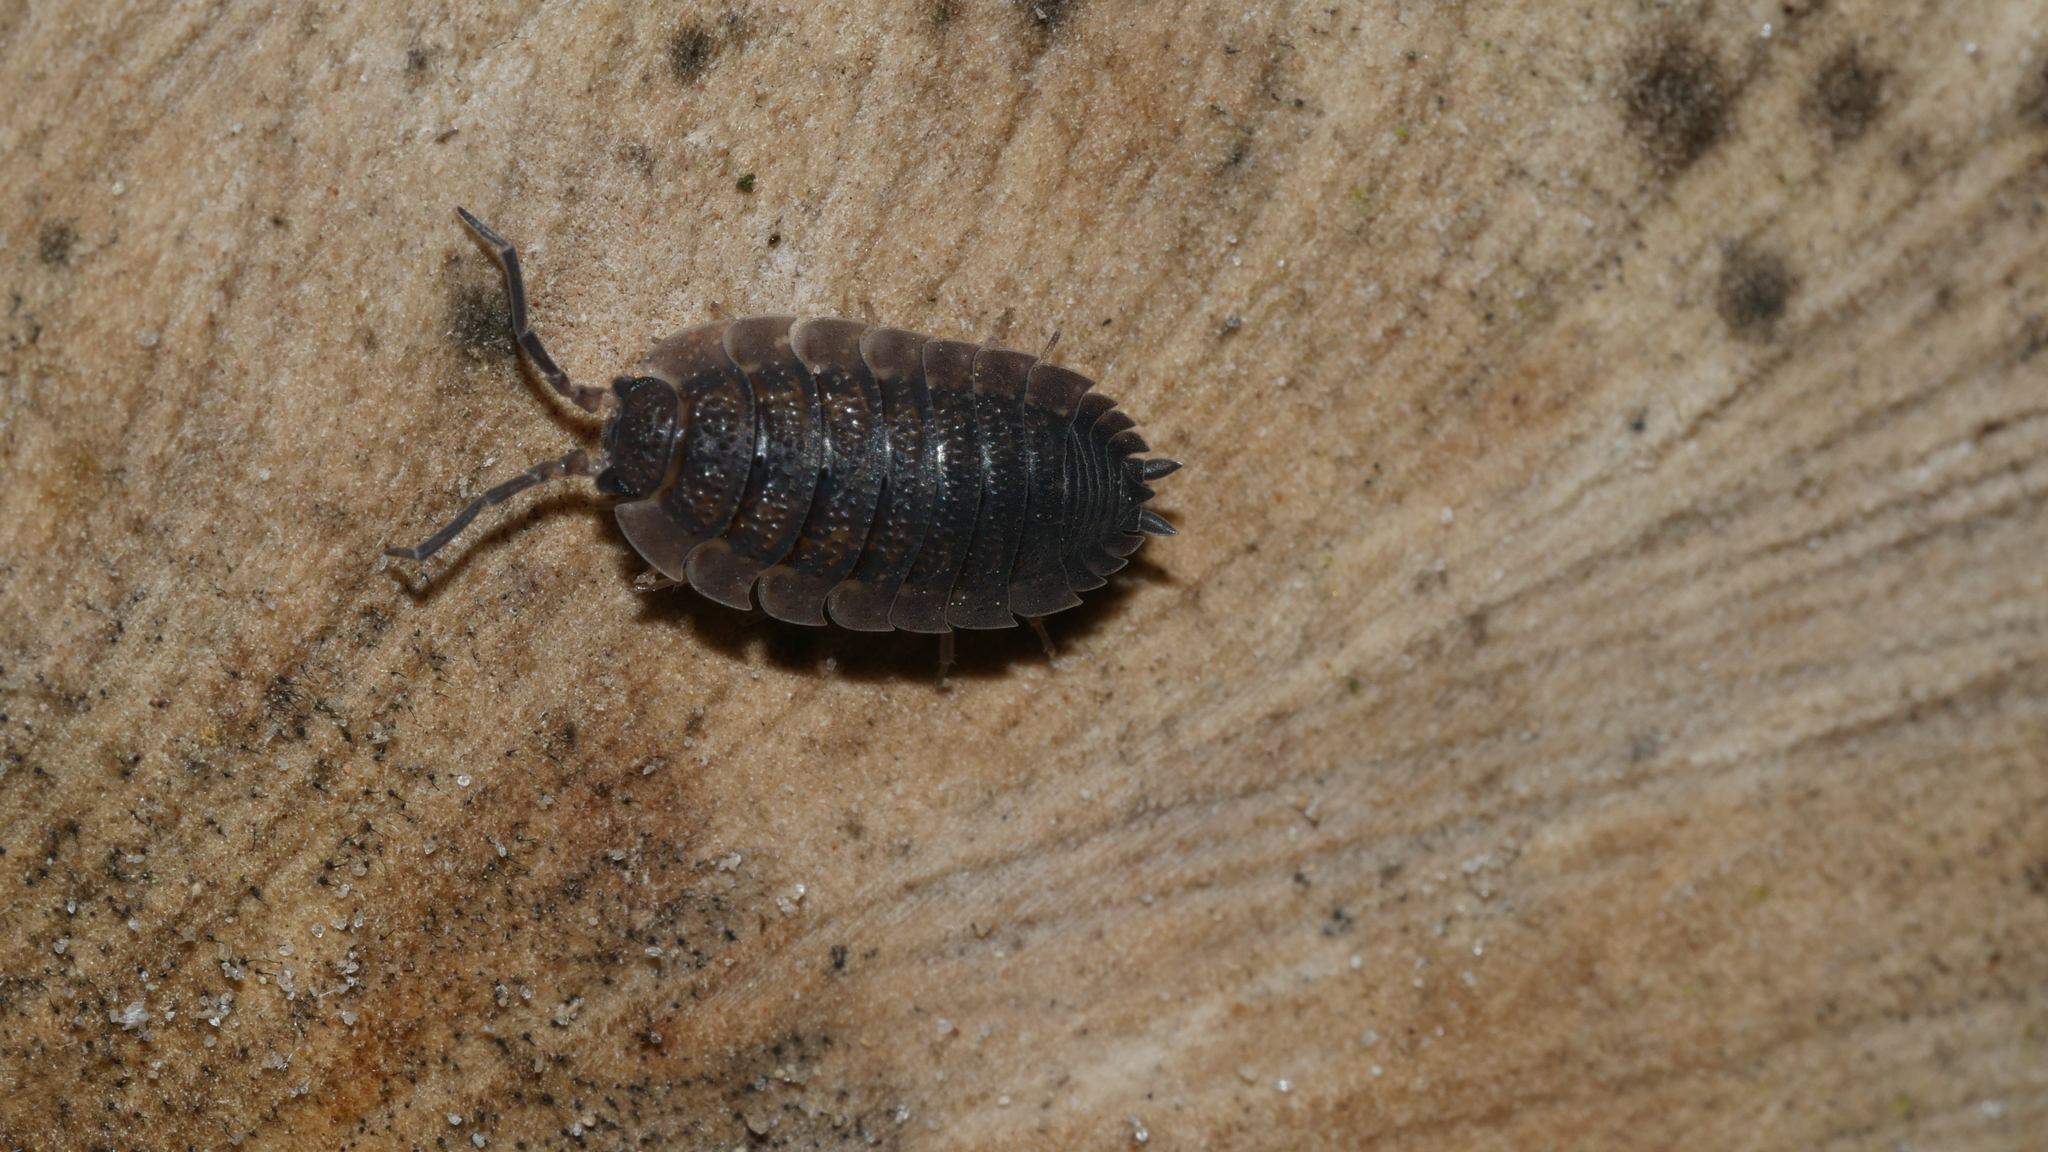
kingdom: Animalia
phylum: Arthropoda
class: Malacostraca
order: Isopoda
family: Porcellionidae
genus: Porcellio
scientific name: Porcellio scaber
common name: Common rough woodlouse
